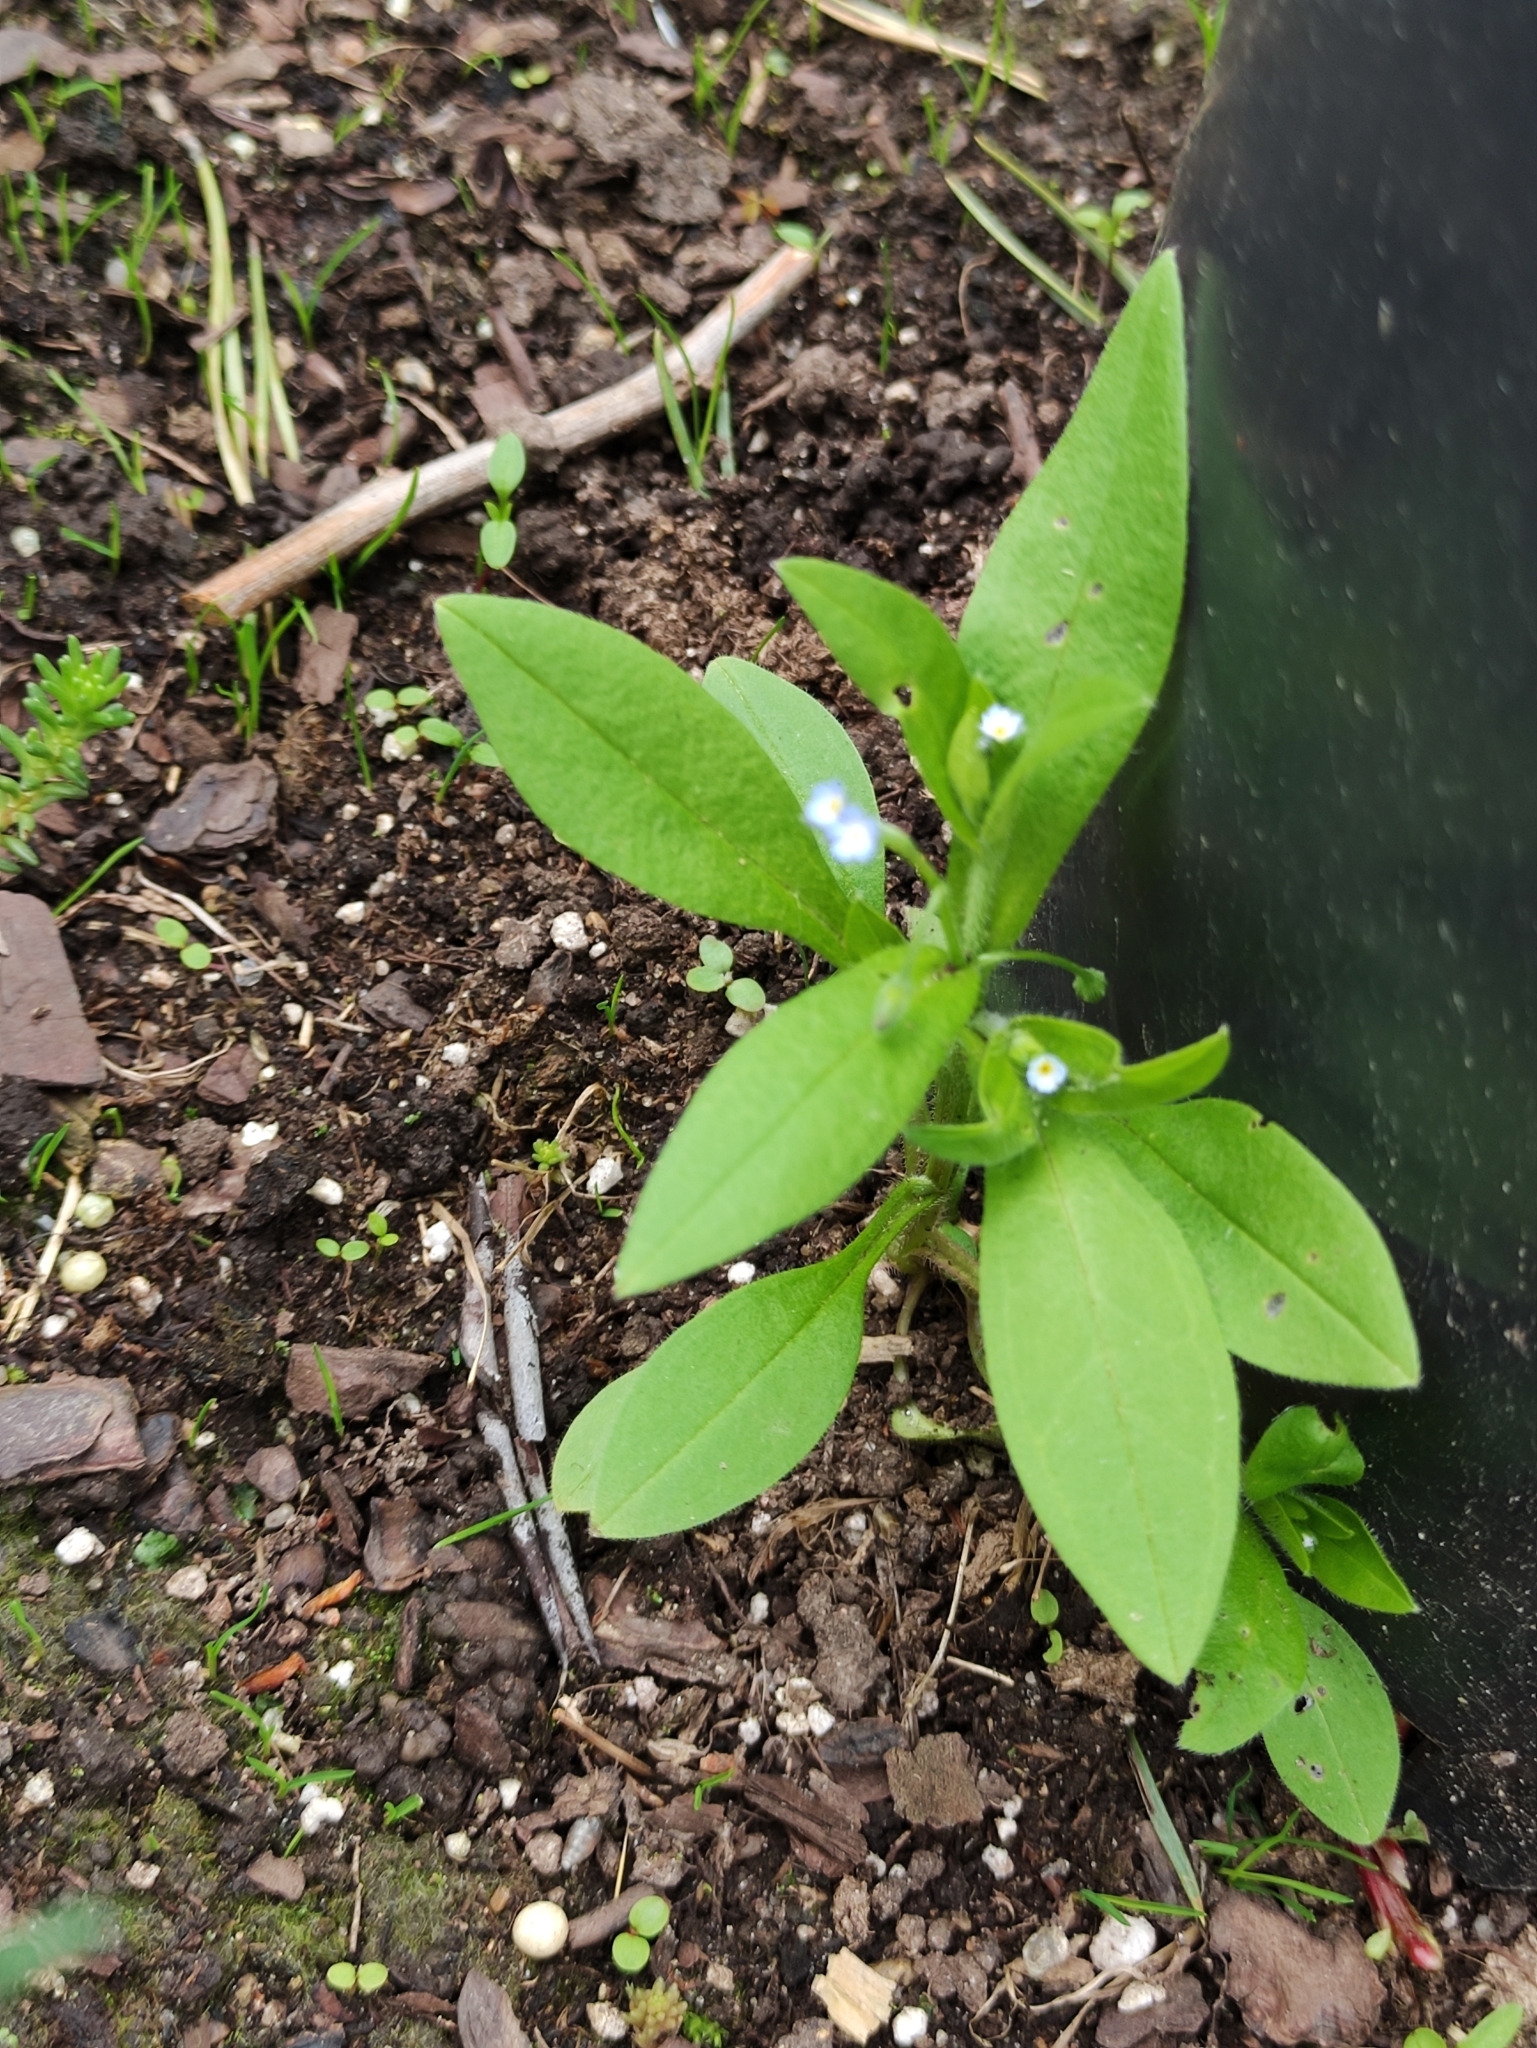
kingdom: Plantae
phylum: Tracheophyta
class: Magnoliopsida
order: Boraginales
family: Boraginaceae
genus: Myosotis
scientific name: Myosotis sparsiflora
